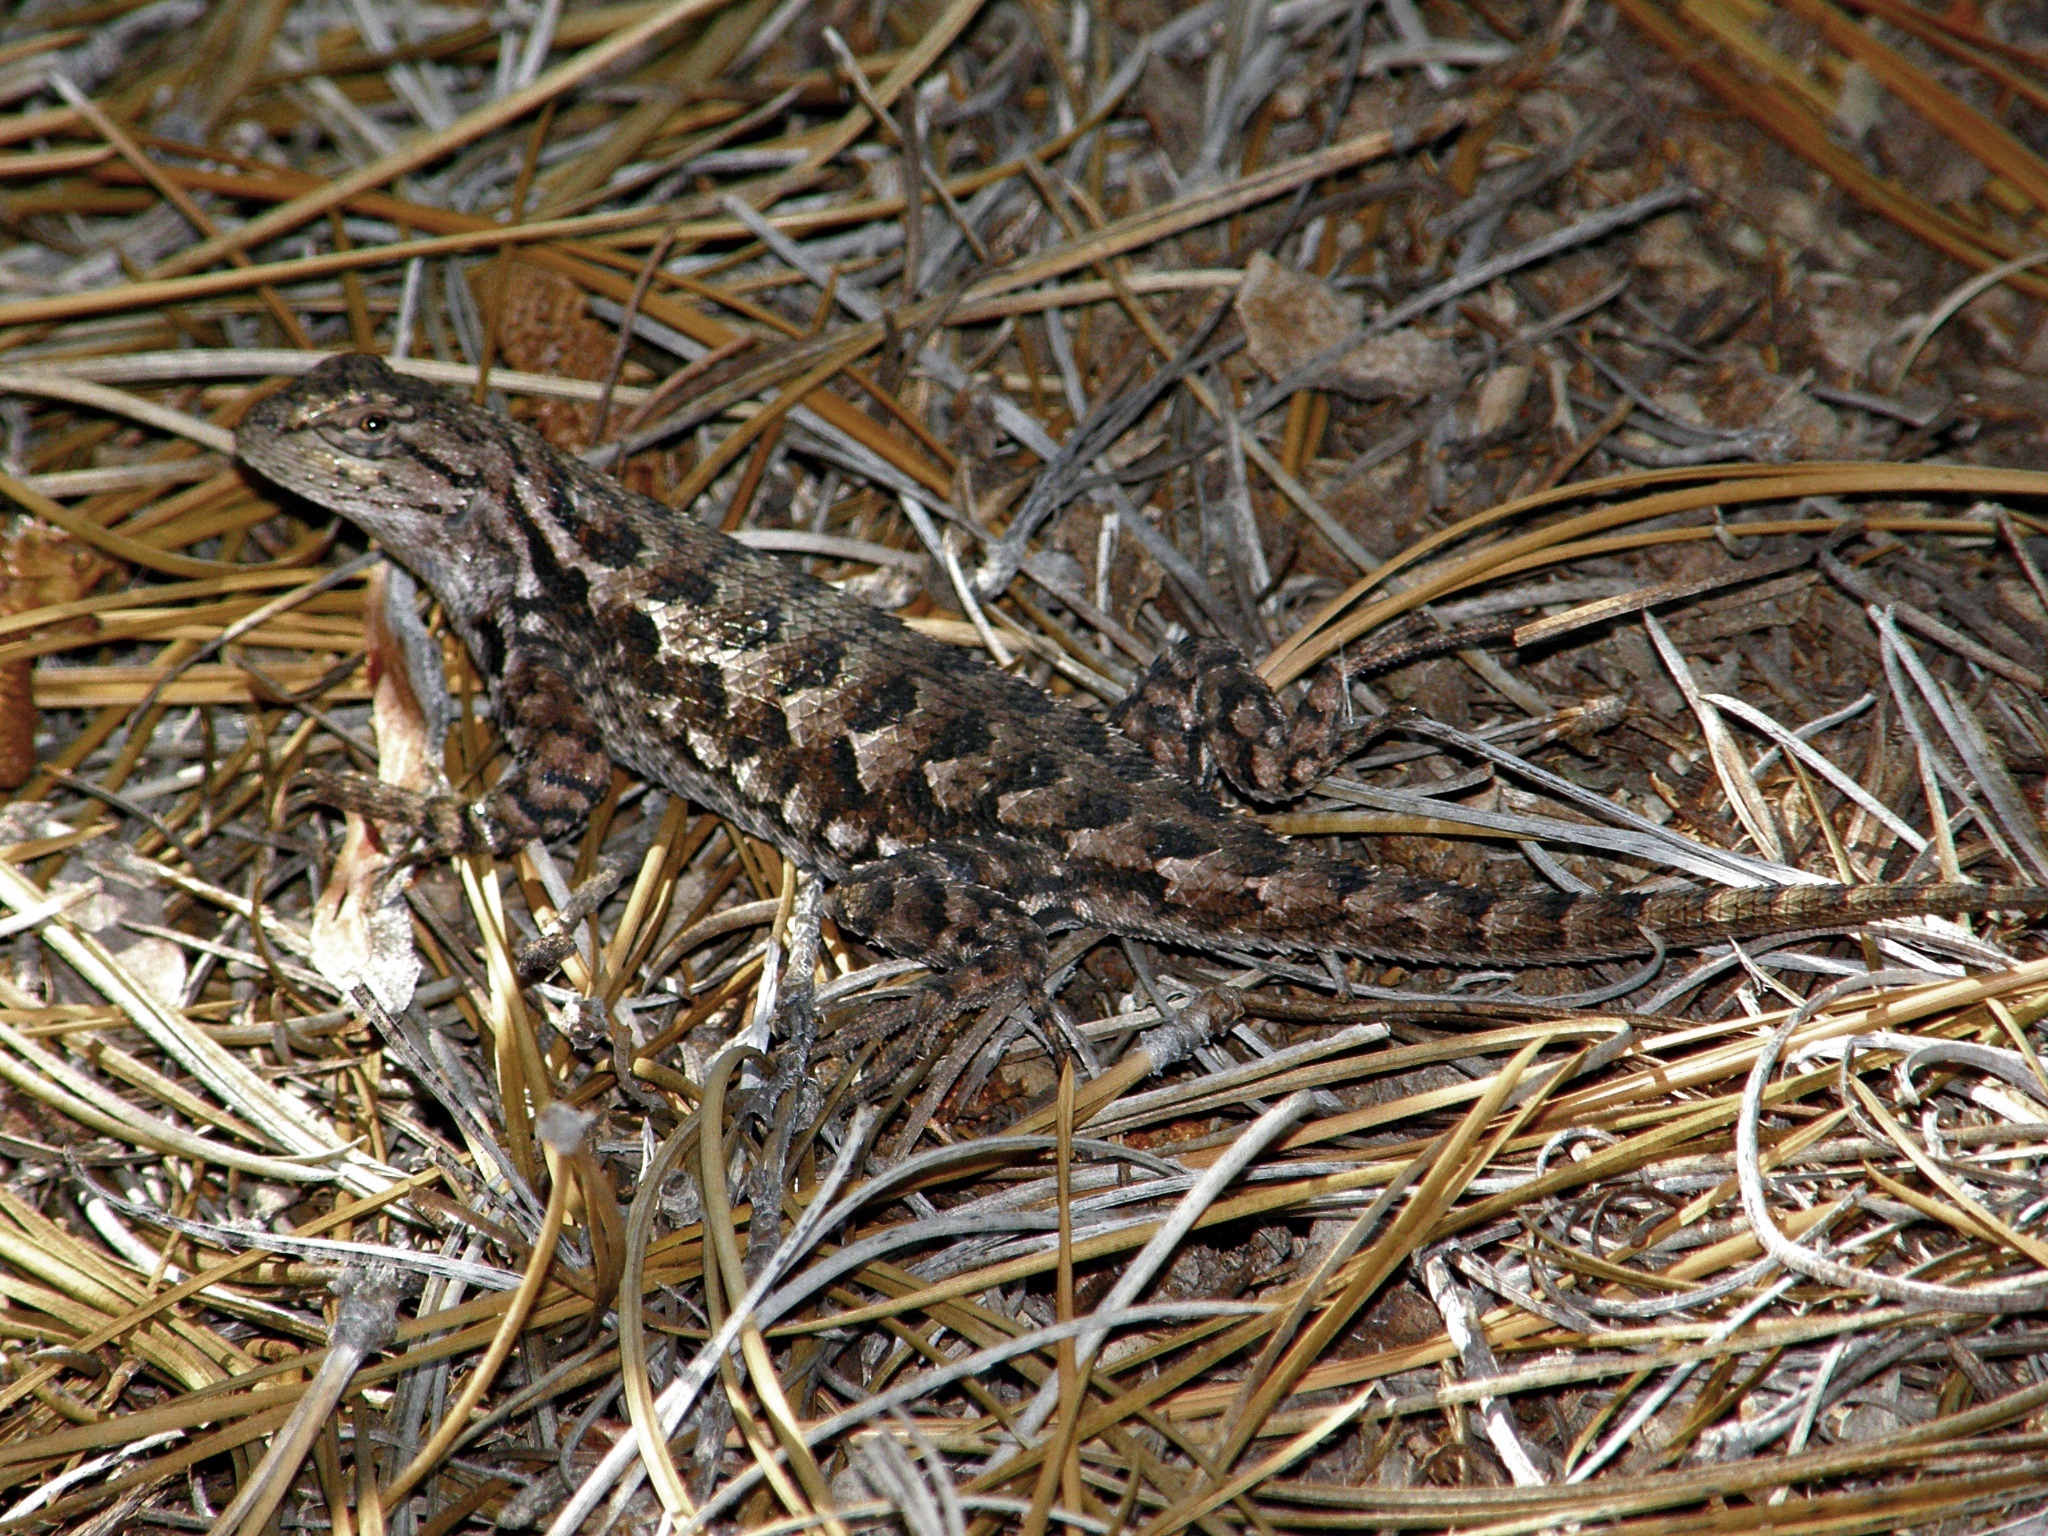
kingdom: Animalia
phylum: Chordata
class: Squamata
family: Phrynosomatidae
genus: Sceloporus
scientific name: Sceloporus occidentalis
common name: Western fence lizard
